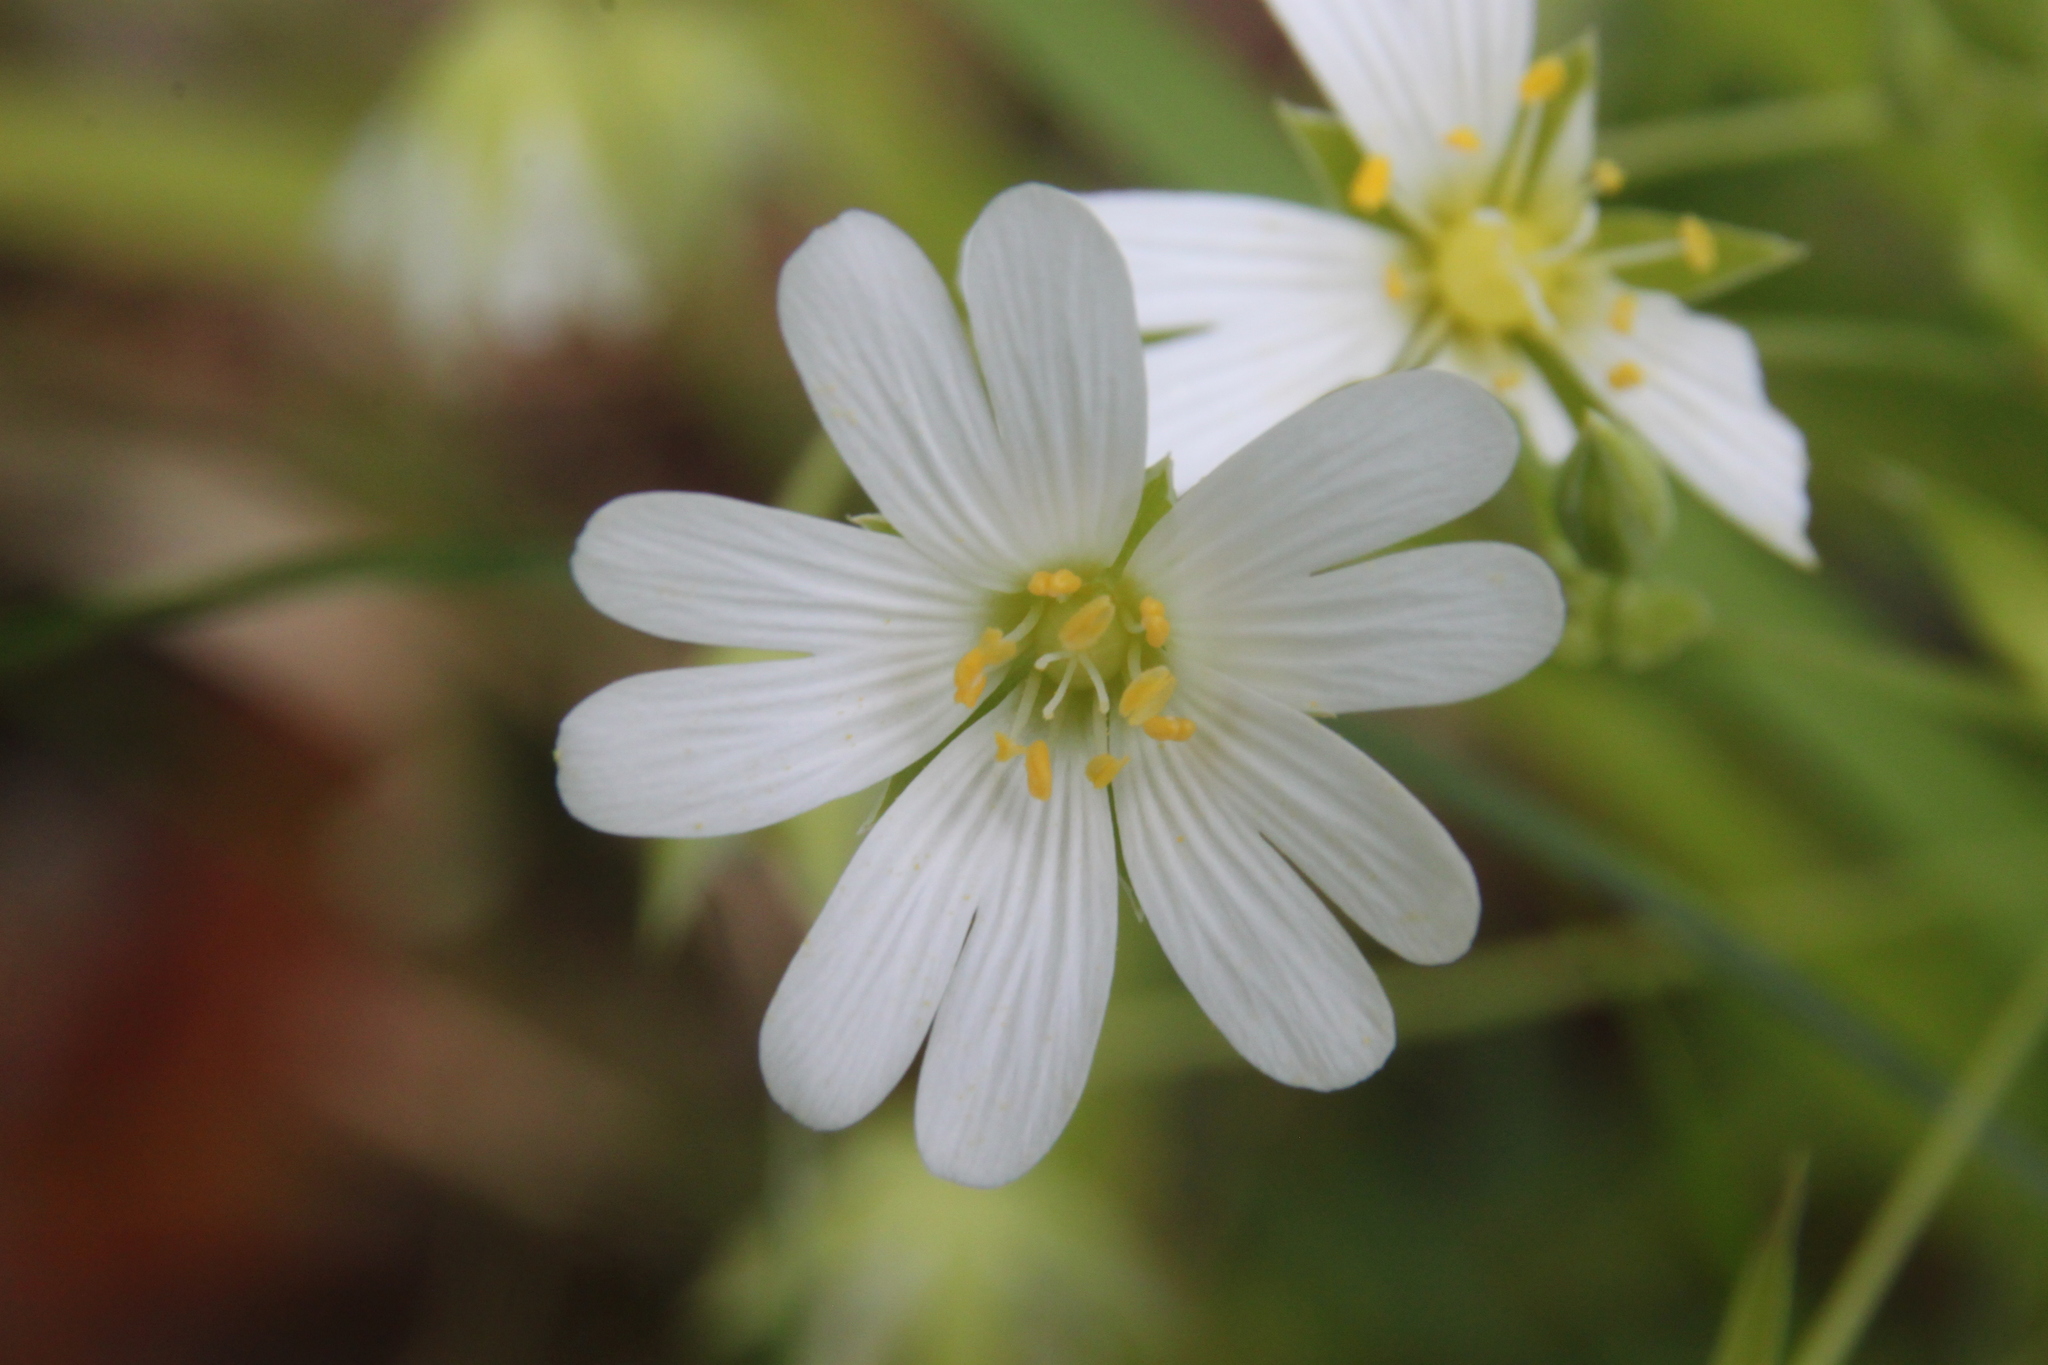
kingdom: Plantae
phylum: Tracheophyta
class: Magnoliopsida
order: Caryophyllales
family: Caryophyllaceae
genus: Rabelera
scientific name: Rabelera holostea
